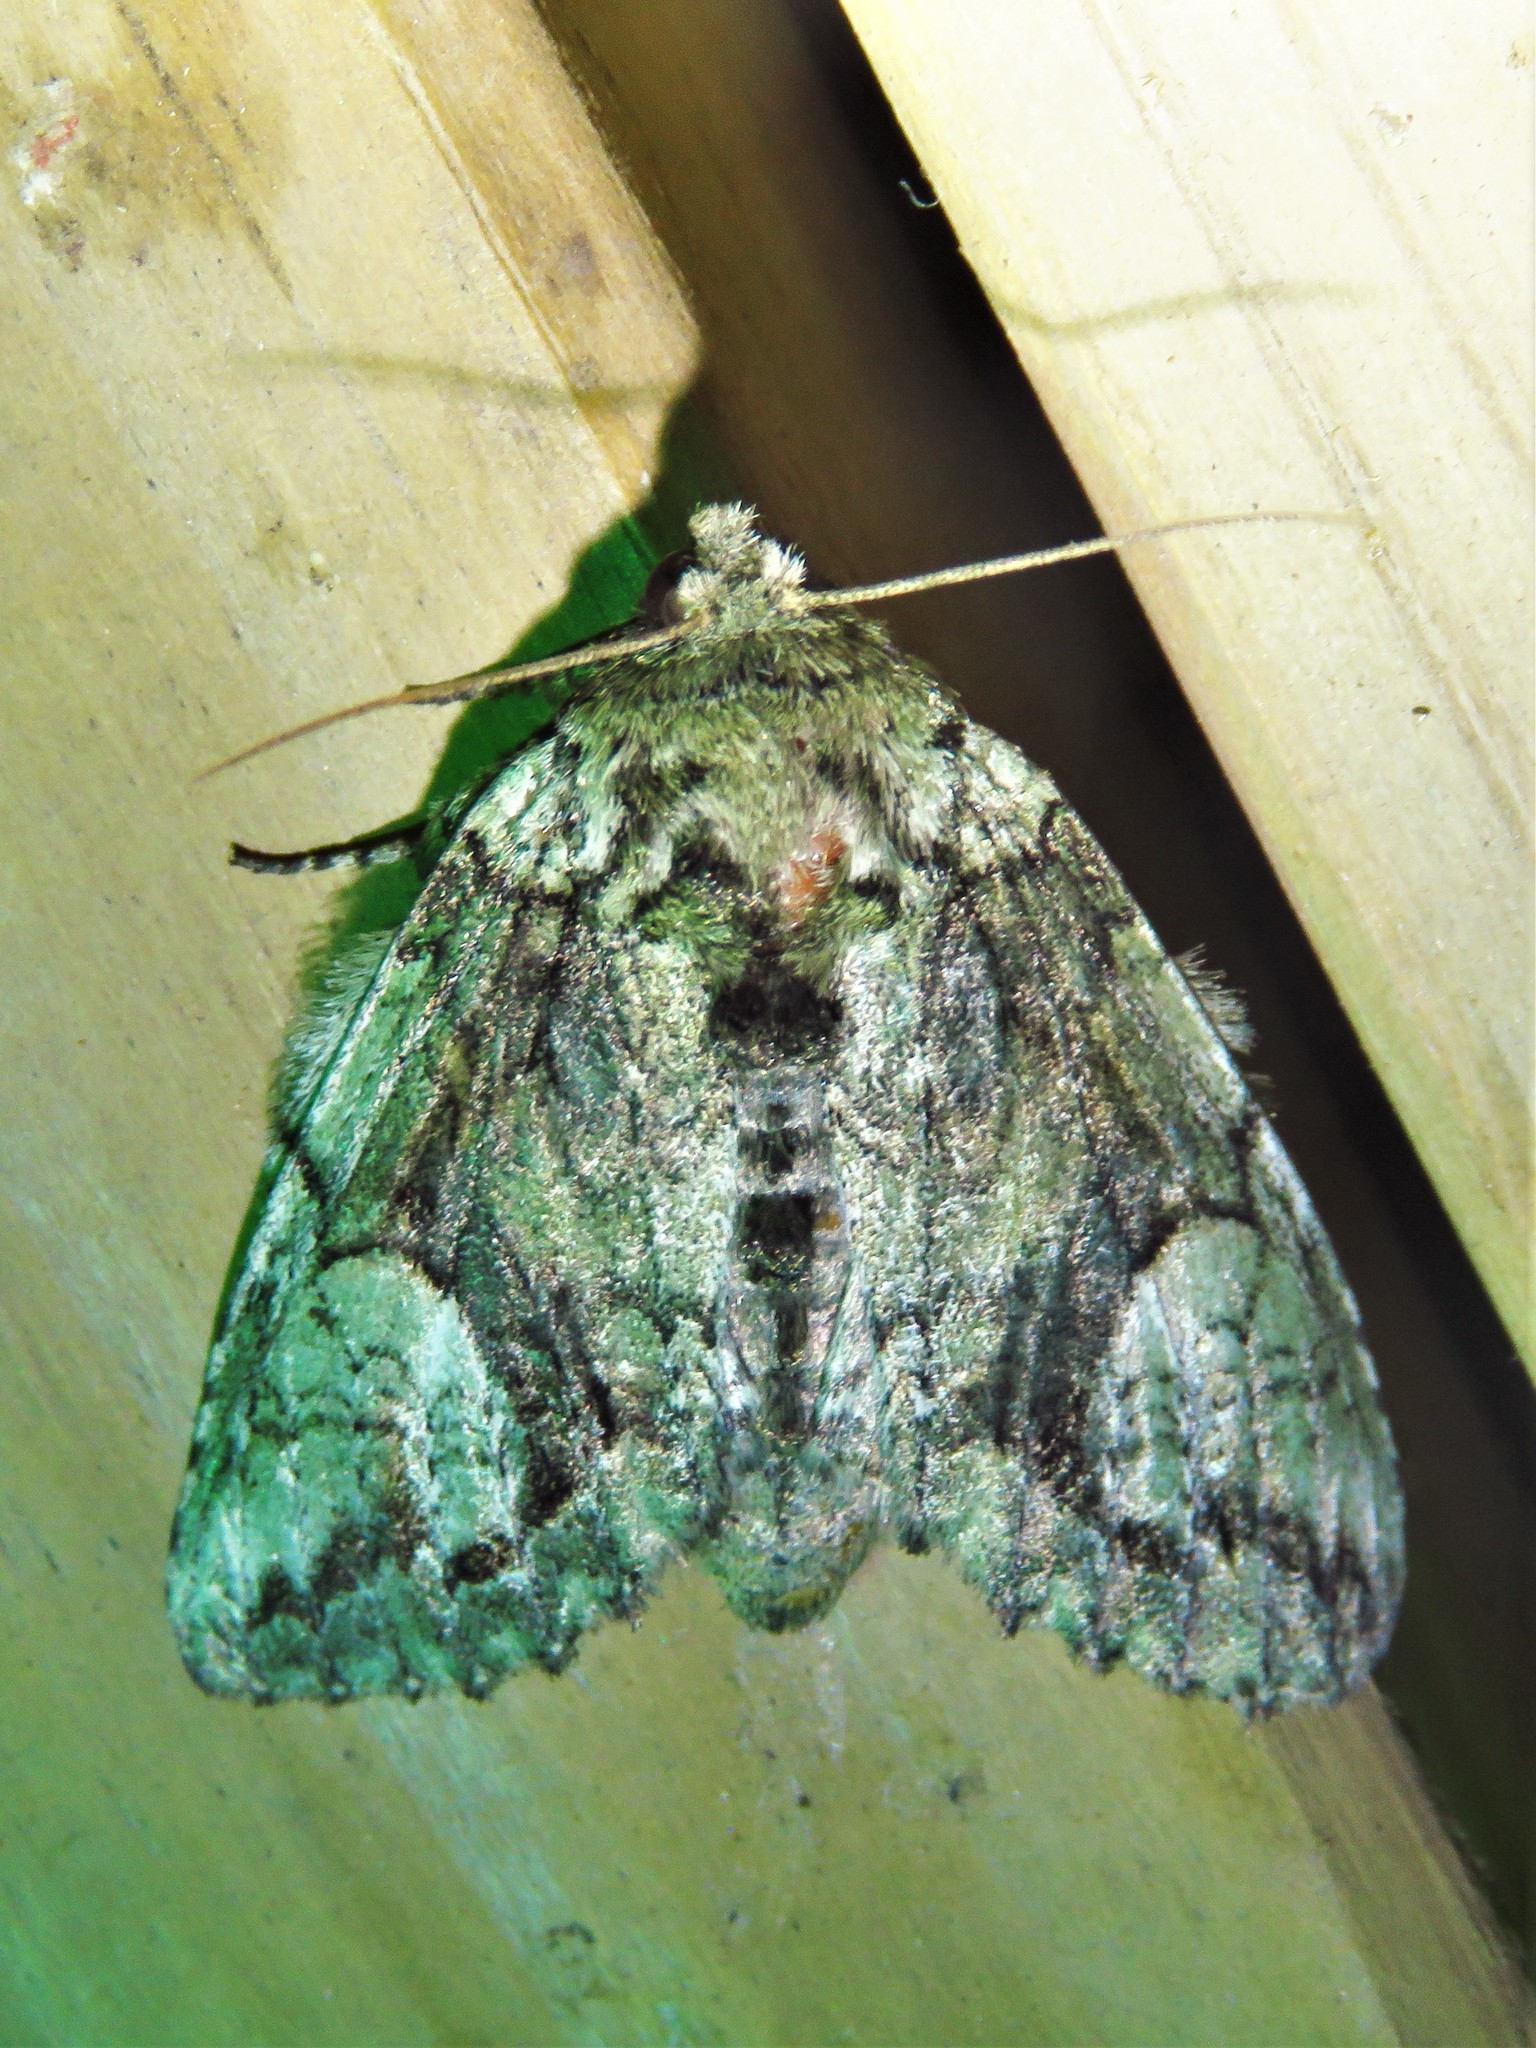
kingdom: Animalia
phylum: Arthropoda
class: Insecta
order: Lepidoptera
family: Notodontidae
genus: Heterocampa
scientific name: Heterocampa
